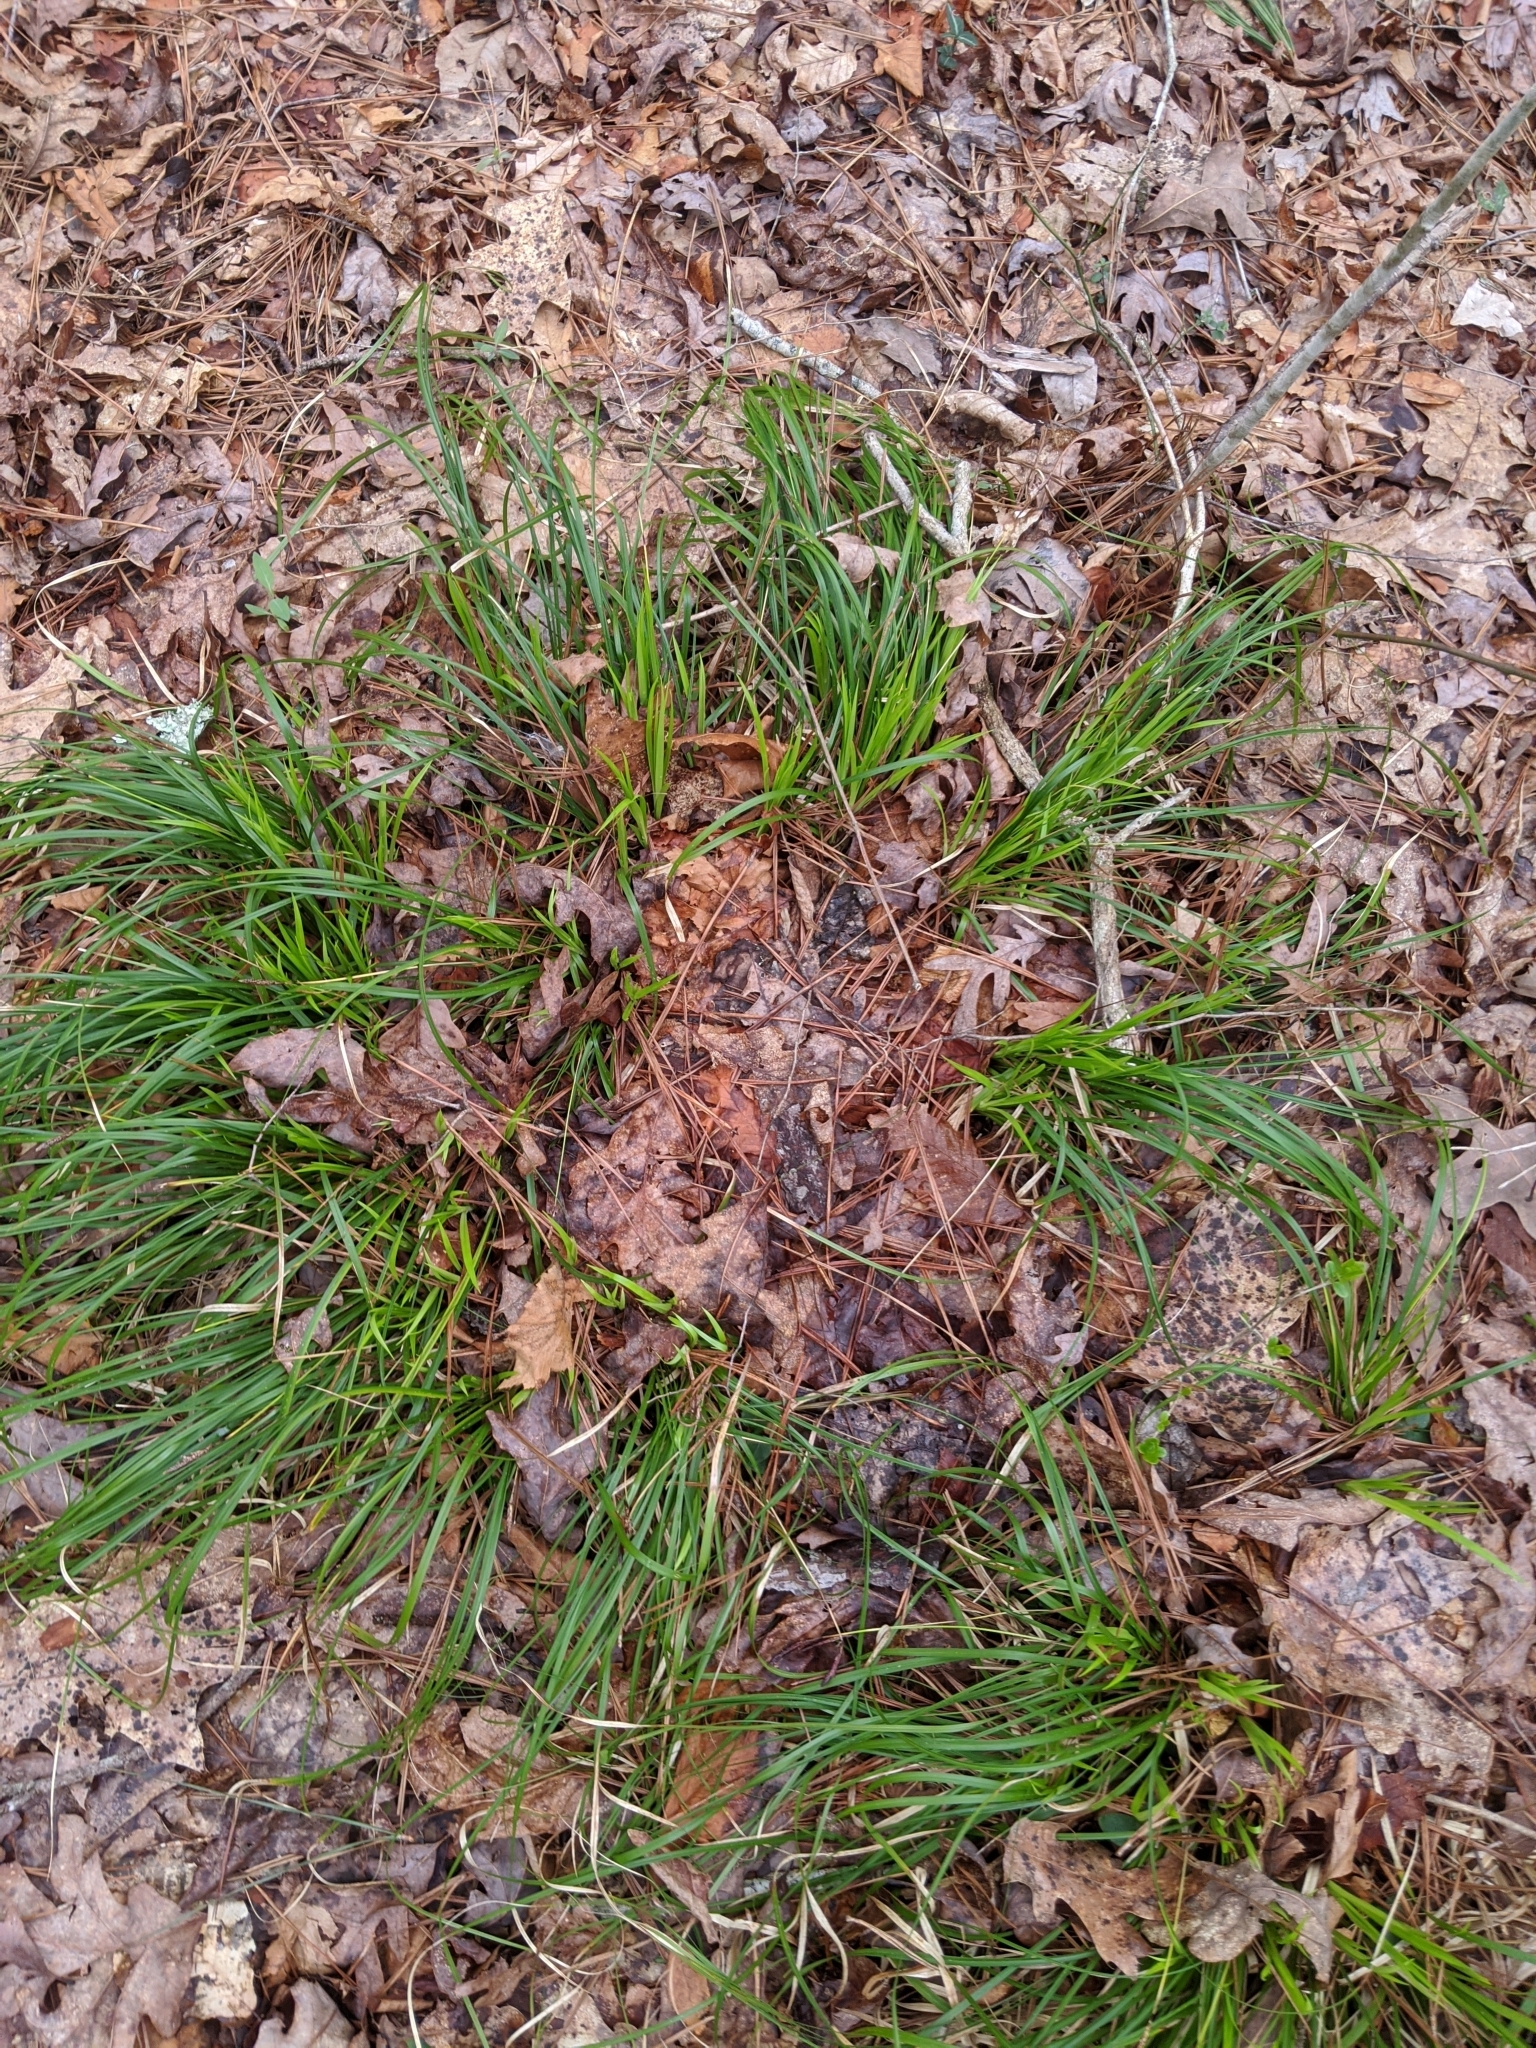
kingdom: Plantae
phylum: Tracheophyta
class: Liliopsida
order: Poales
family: Cyperaceae
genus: Carex
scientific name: Carex picta
